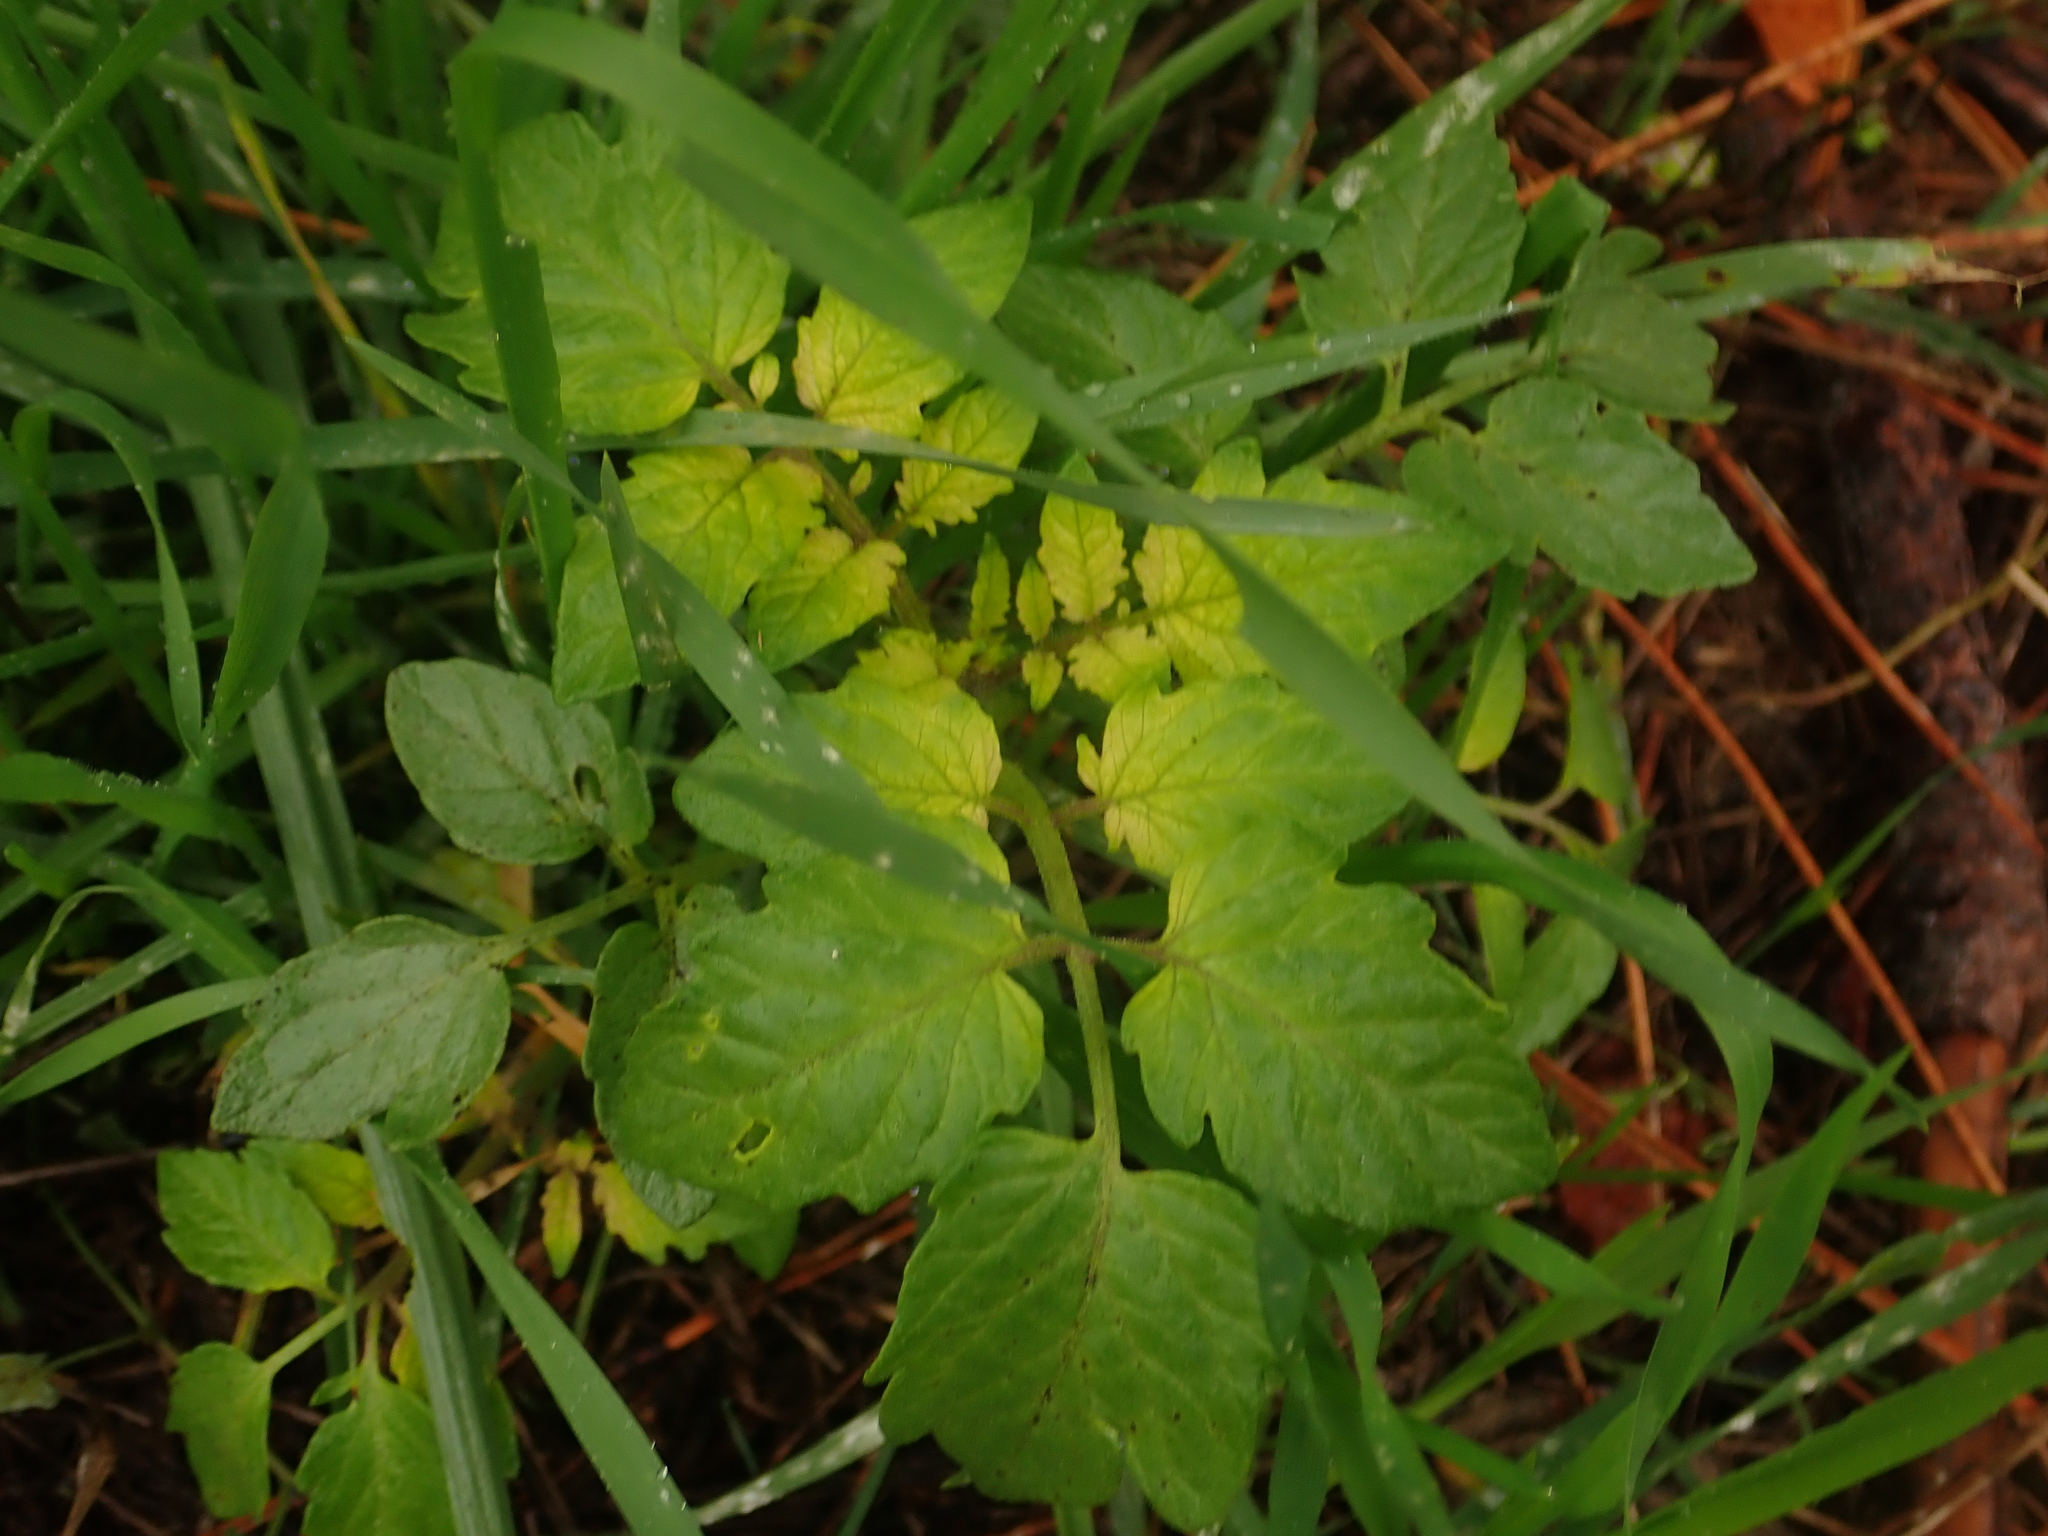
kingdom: Plantae
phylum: Tracheophyta
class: Magnoliopsida
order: Solanales
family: Solanaceae
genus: Solanum
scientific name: Solanum lycopersicum
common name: Garden tomato
